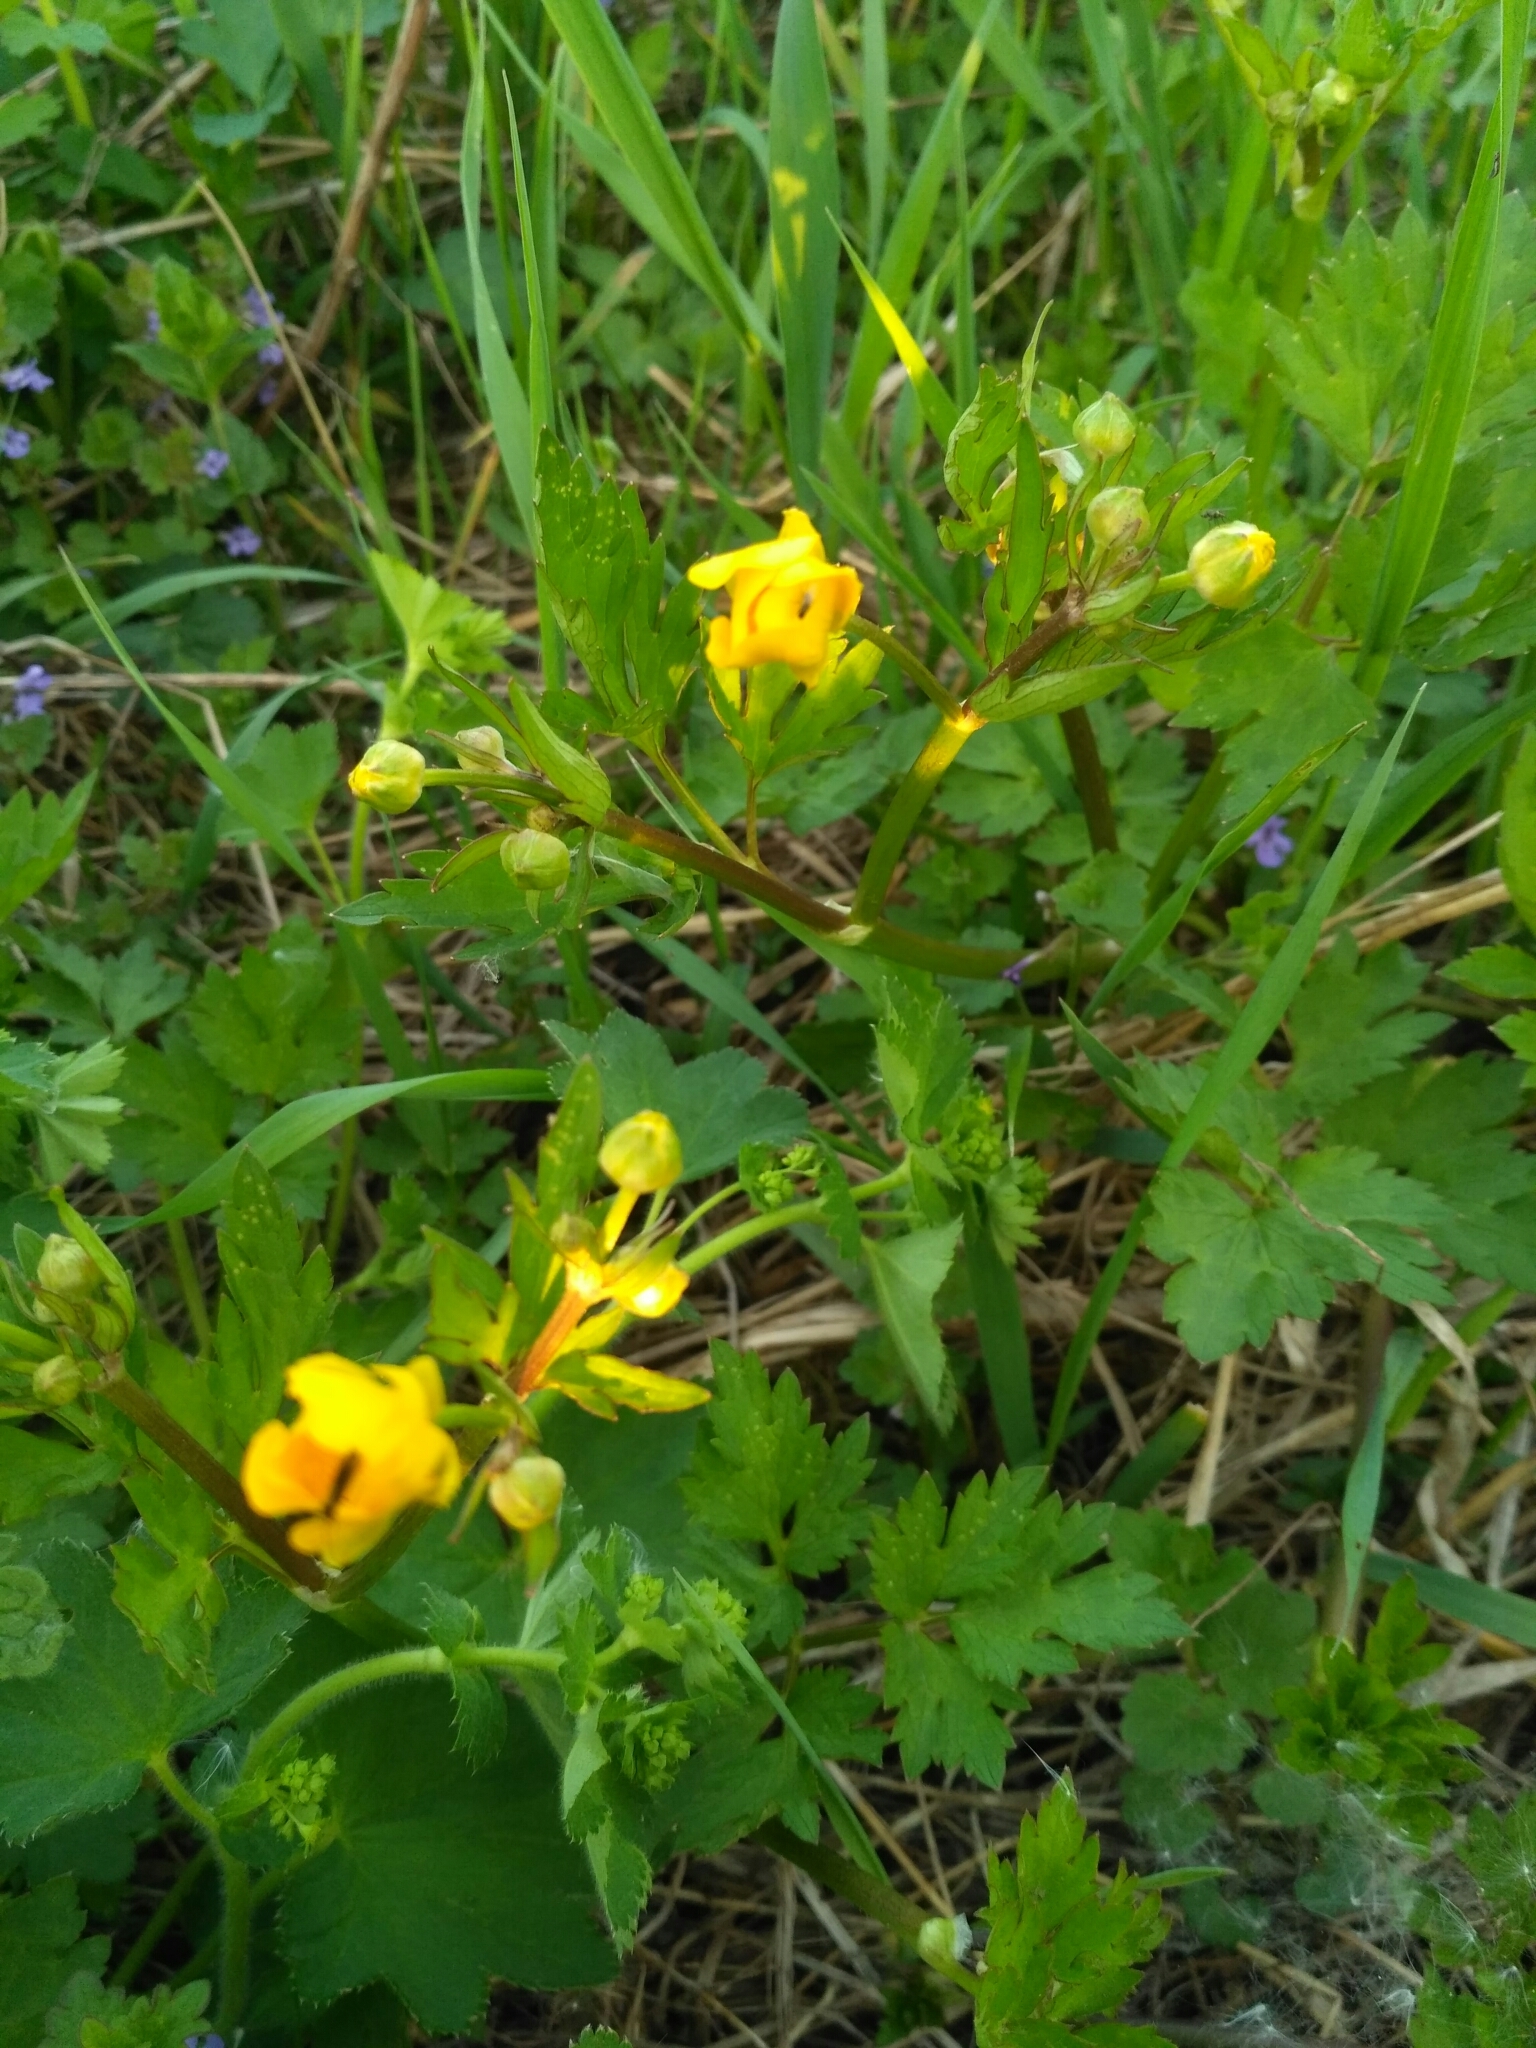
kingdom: Plantae
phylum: Tracheophyta
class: Magnoliopsida
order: Ranunculales
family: Ranunculaceae
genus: Ranunculus
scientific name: Ranunculus repens
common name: Creeping buttercup
